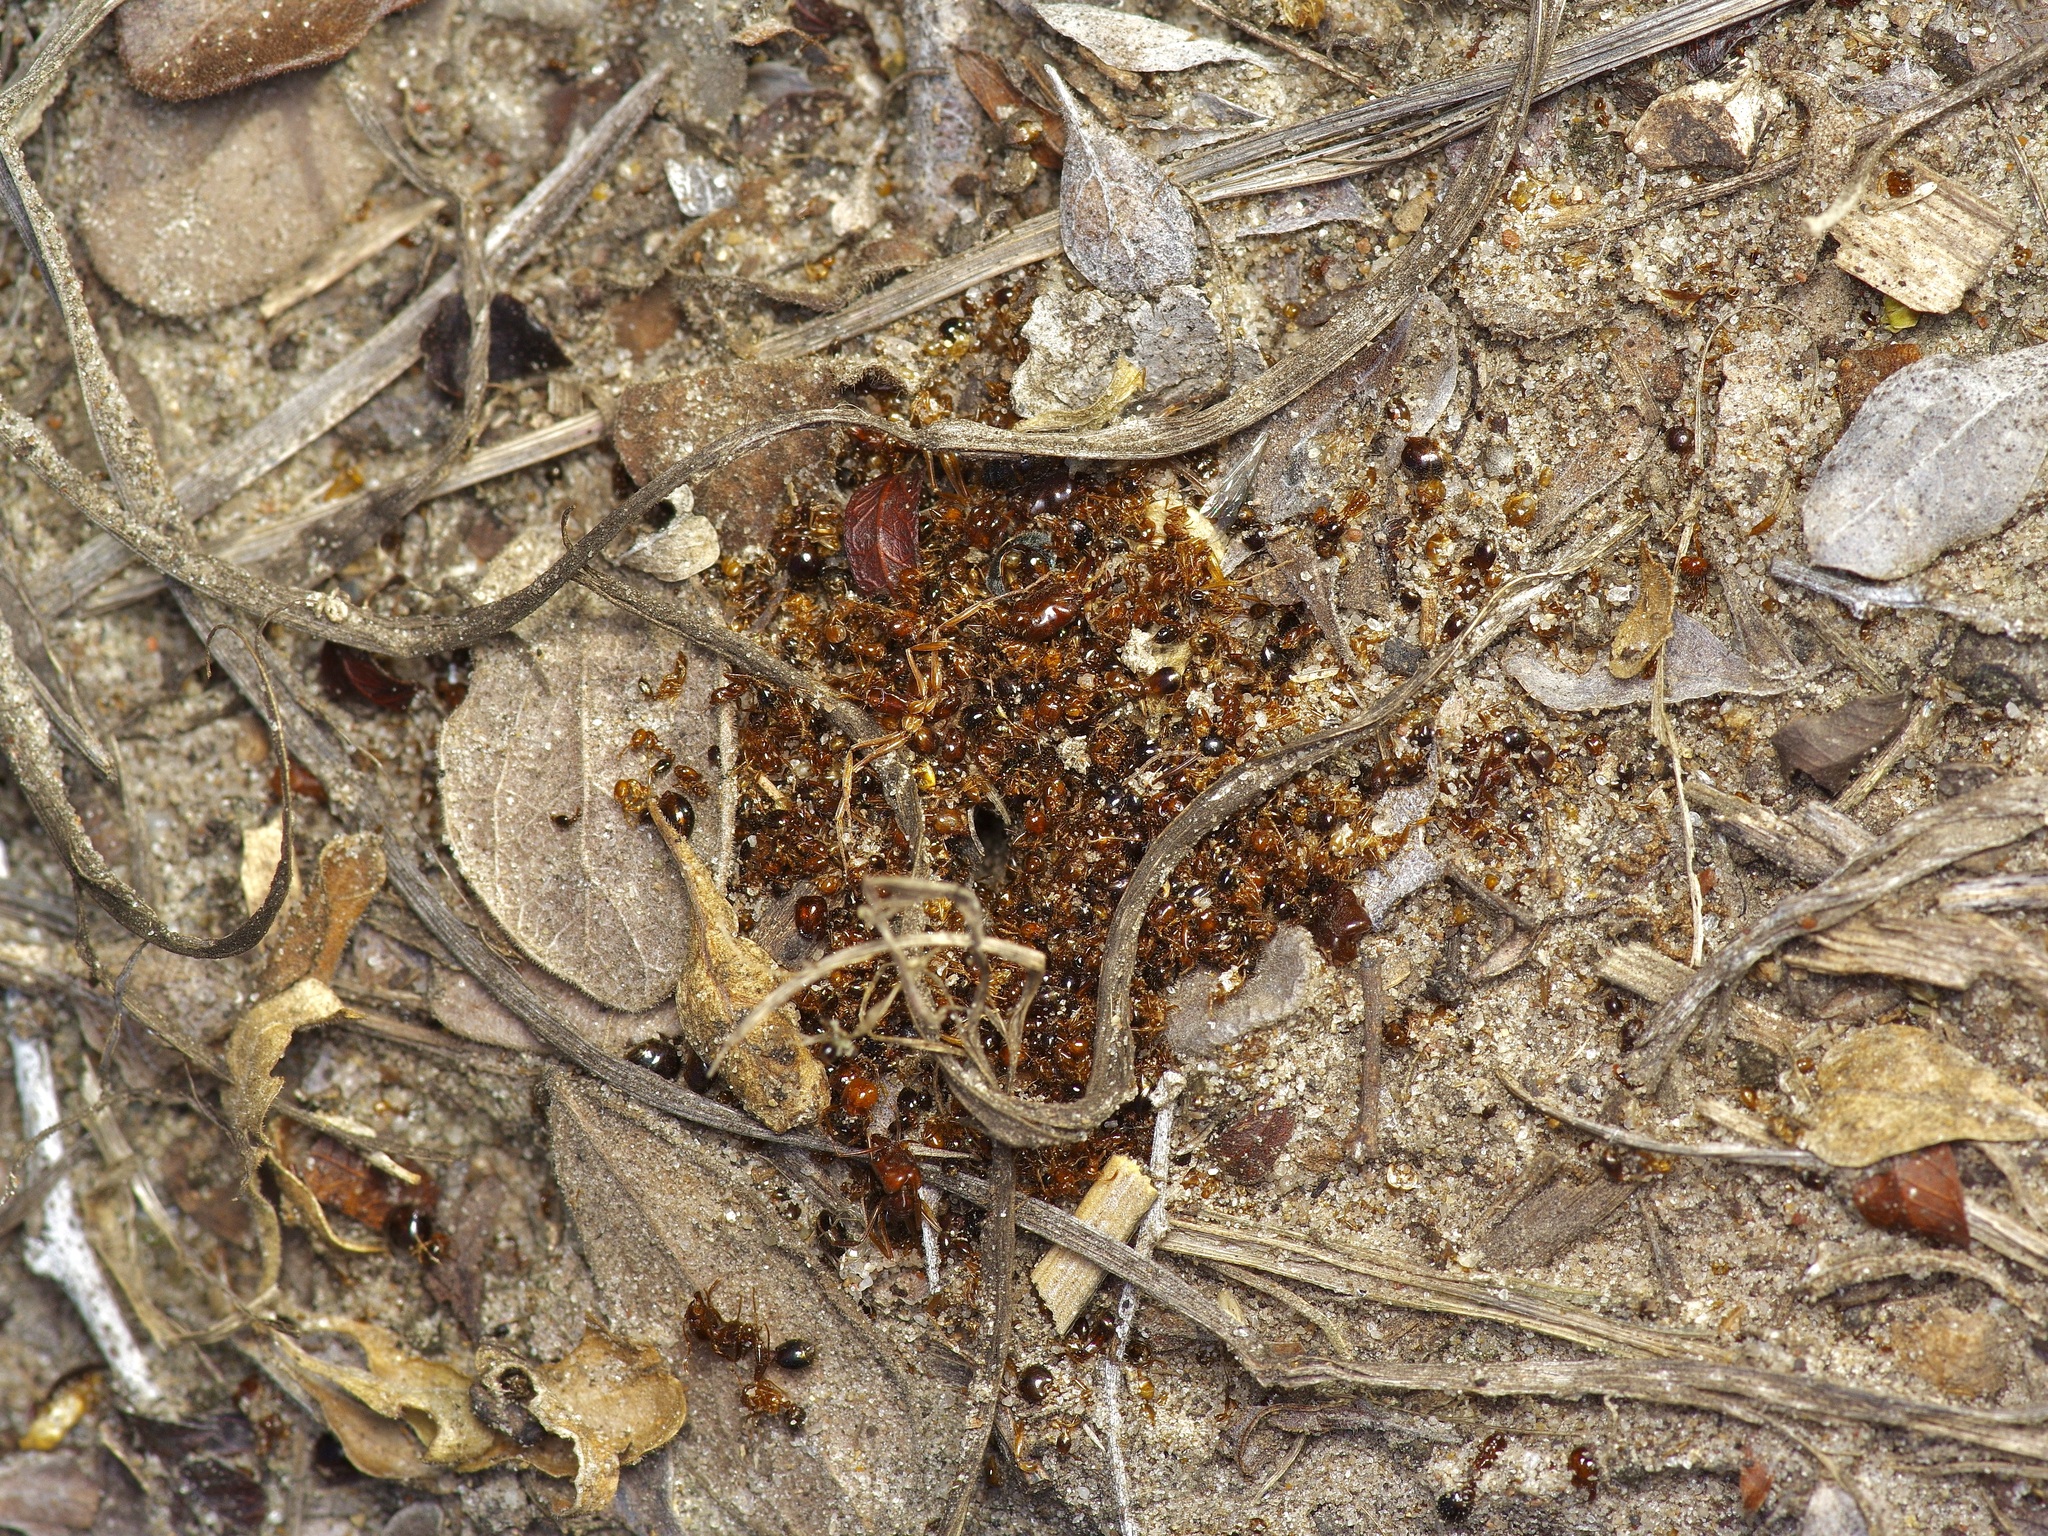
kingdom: Animalia
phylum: Arthropoda
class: Insecta
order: Hymenoptera
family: Formicidae
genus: Solenopsis
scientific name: Solenopsis invicta
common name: Red imported fire ant
